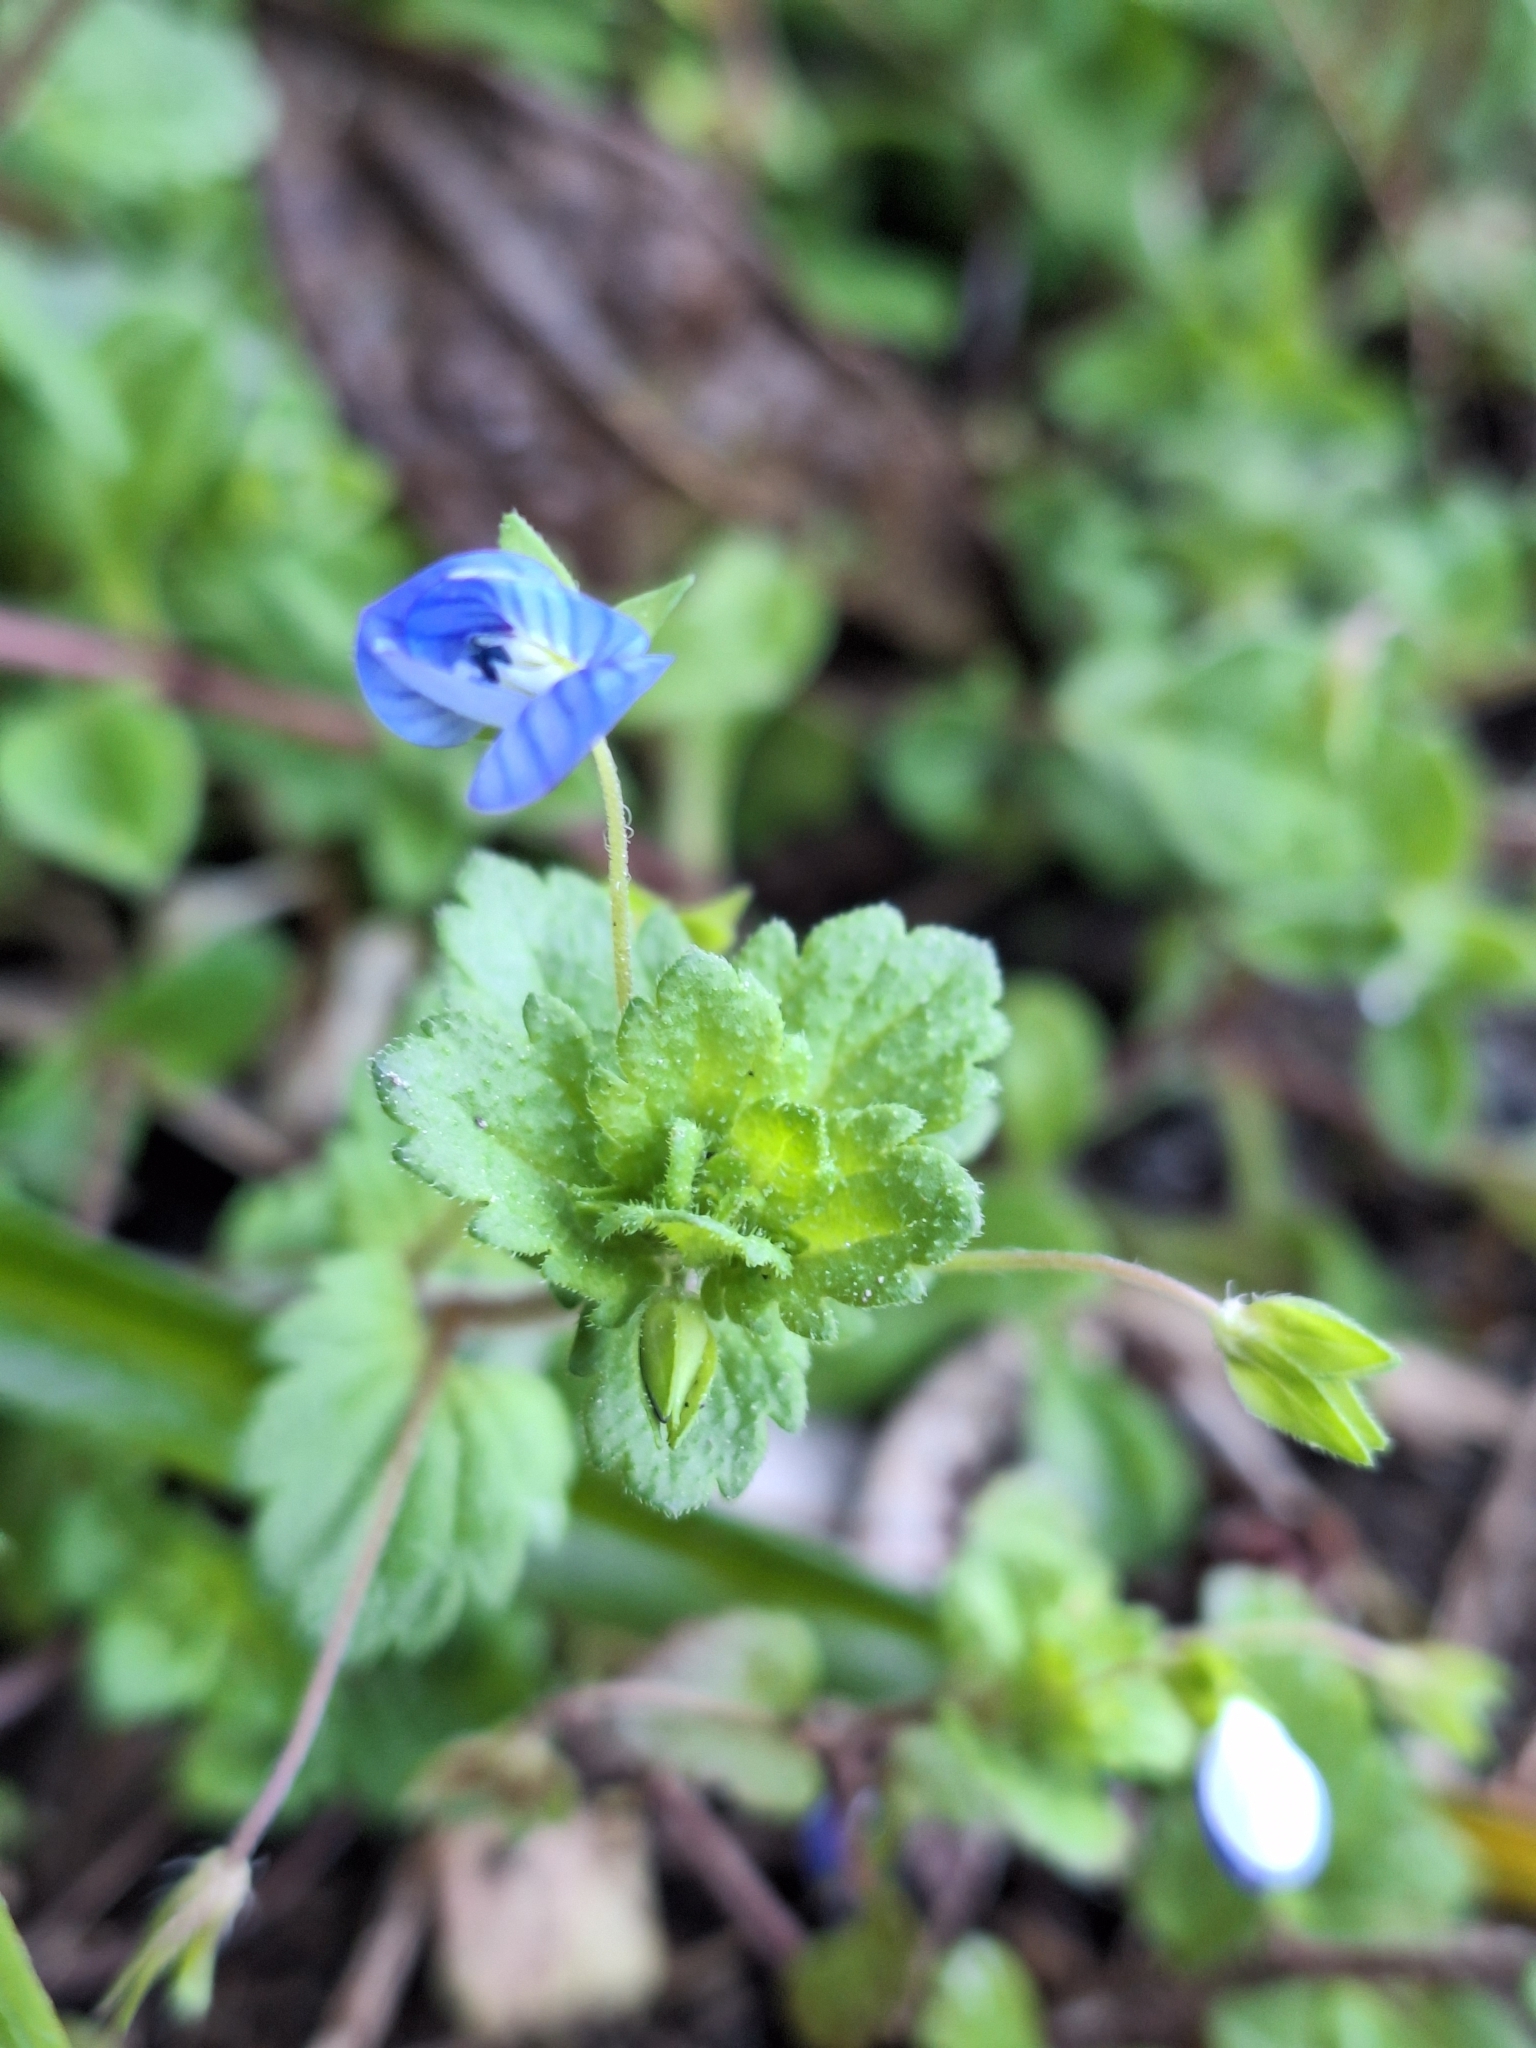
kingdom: Plantae
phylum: Tracheophyta
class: Magnoliopsida
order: Lamiales
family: Plantaginaceae
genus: Veronica
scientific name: Veronica persica
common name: Common field-speedwell
